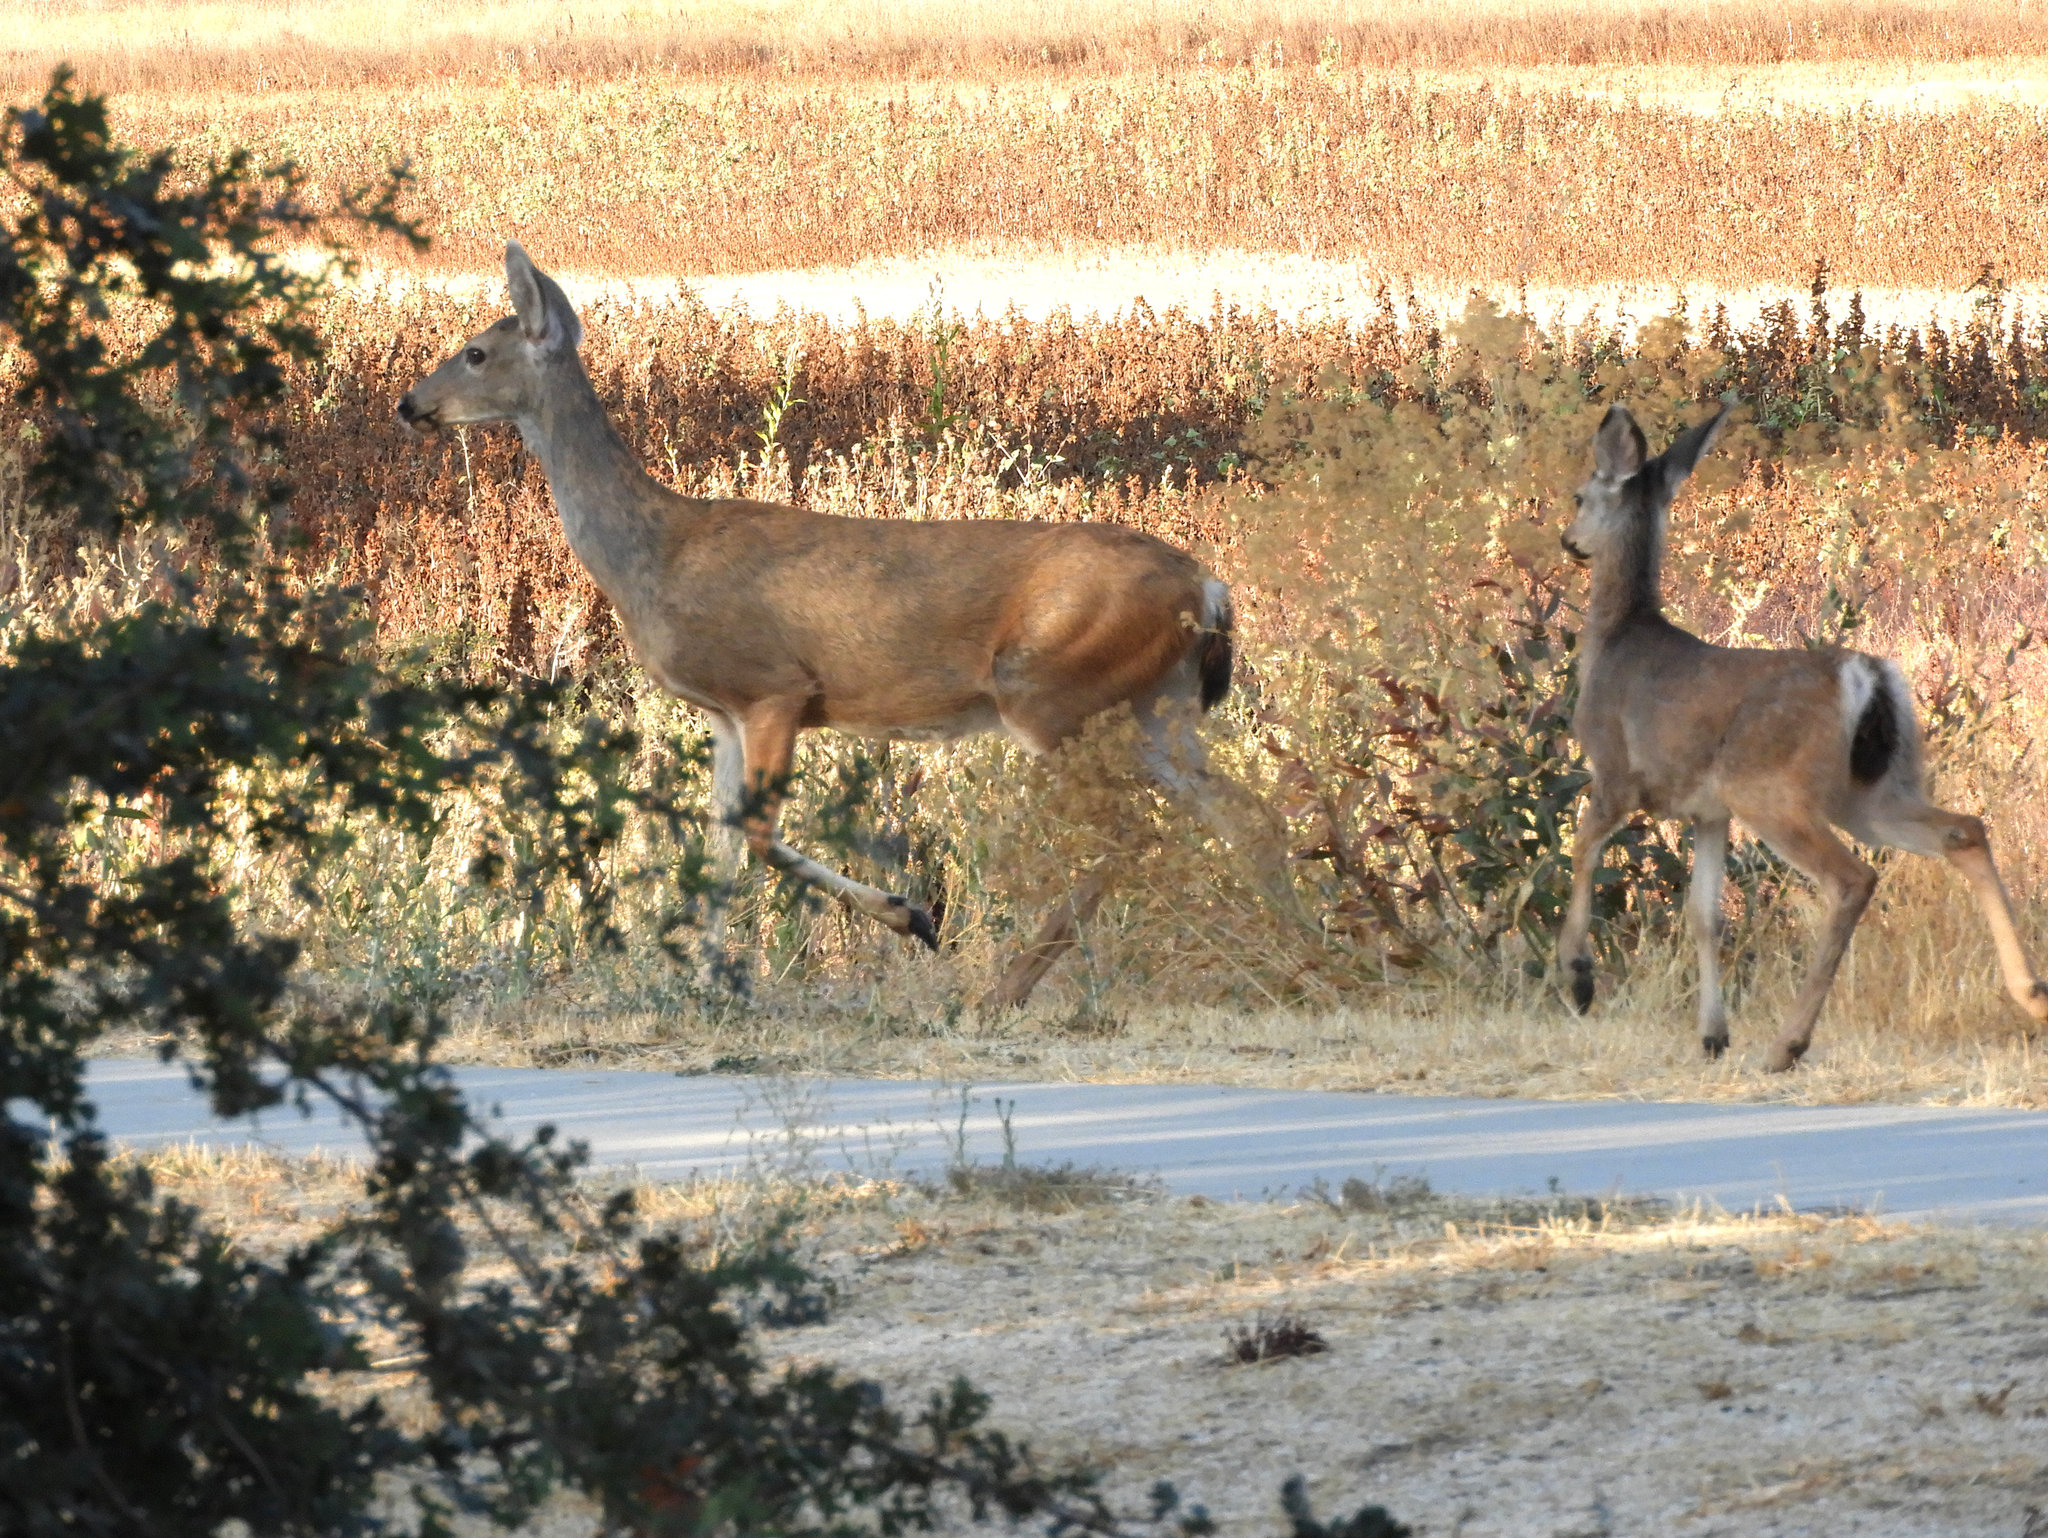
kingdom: Animalia
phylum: Chordata
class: Mammalia
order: Artiodactyla
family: Cervidae
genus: Odocoileus
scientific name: Odocoileus hemionus
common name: Mule deer
